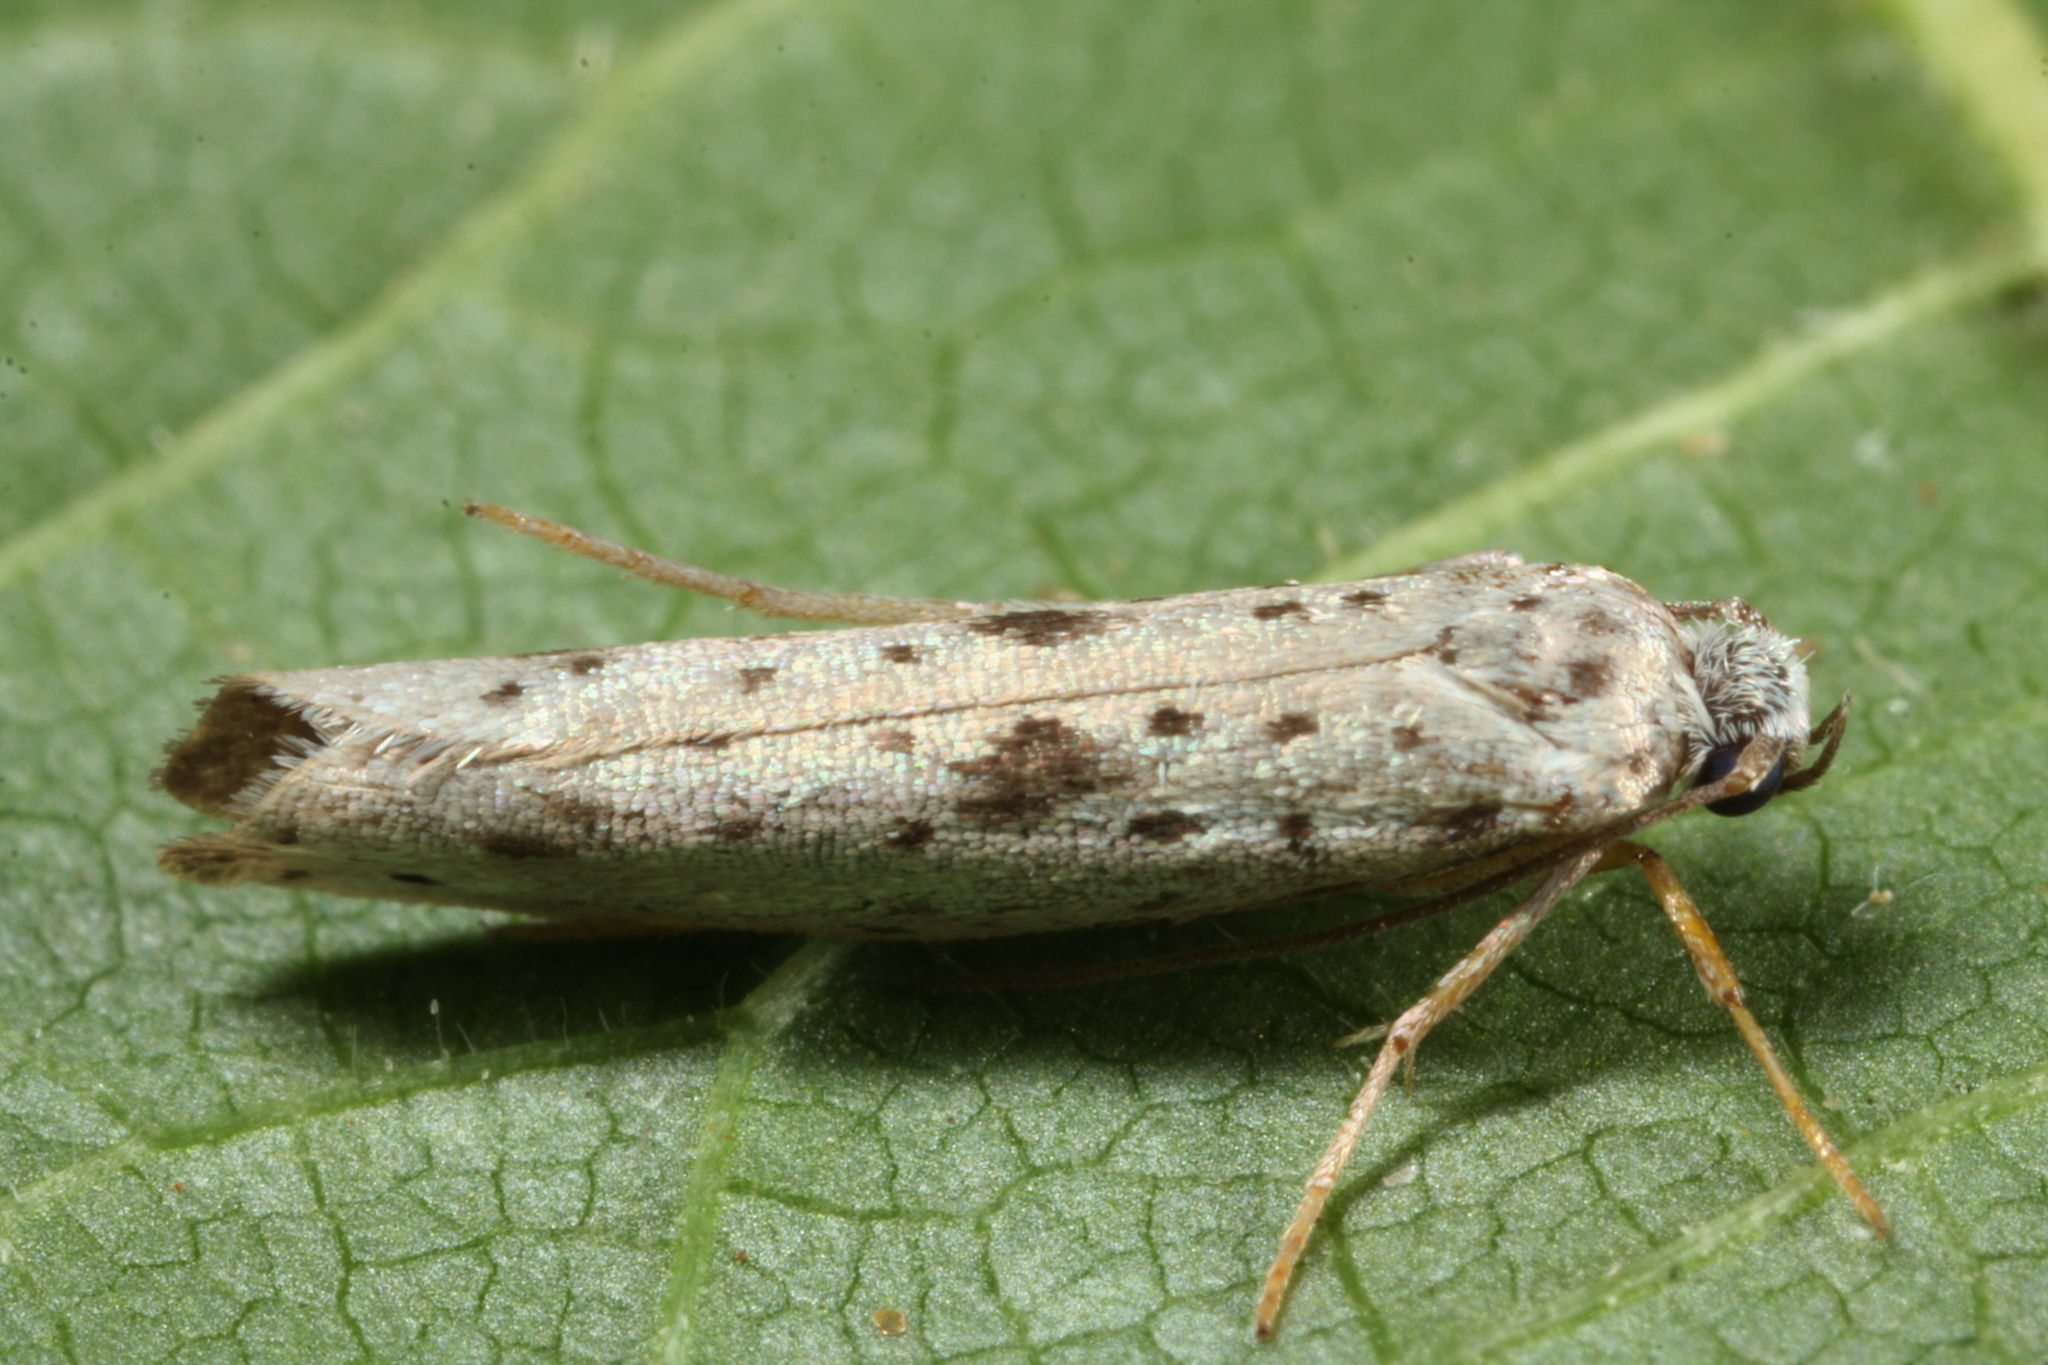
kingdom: Animalia
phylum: Arthropoda
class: Insecta
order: Lepidoptera
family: Yponomeutidae
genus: Yponomeuta
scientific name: Yponomeuta plumbella
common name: Black-tipped ermine
